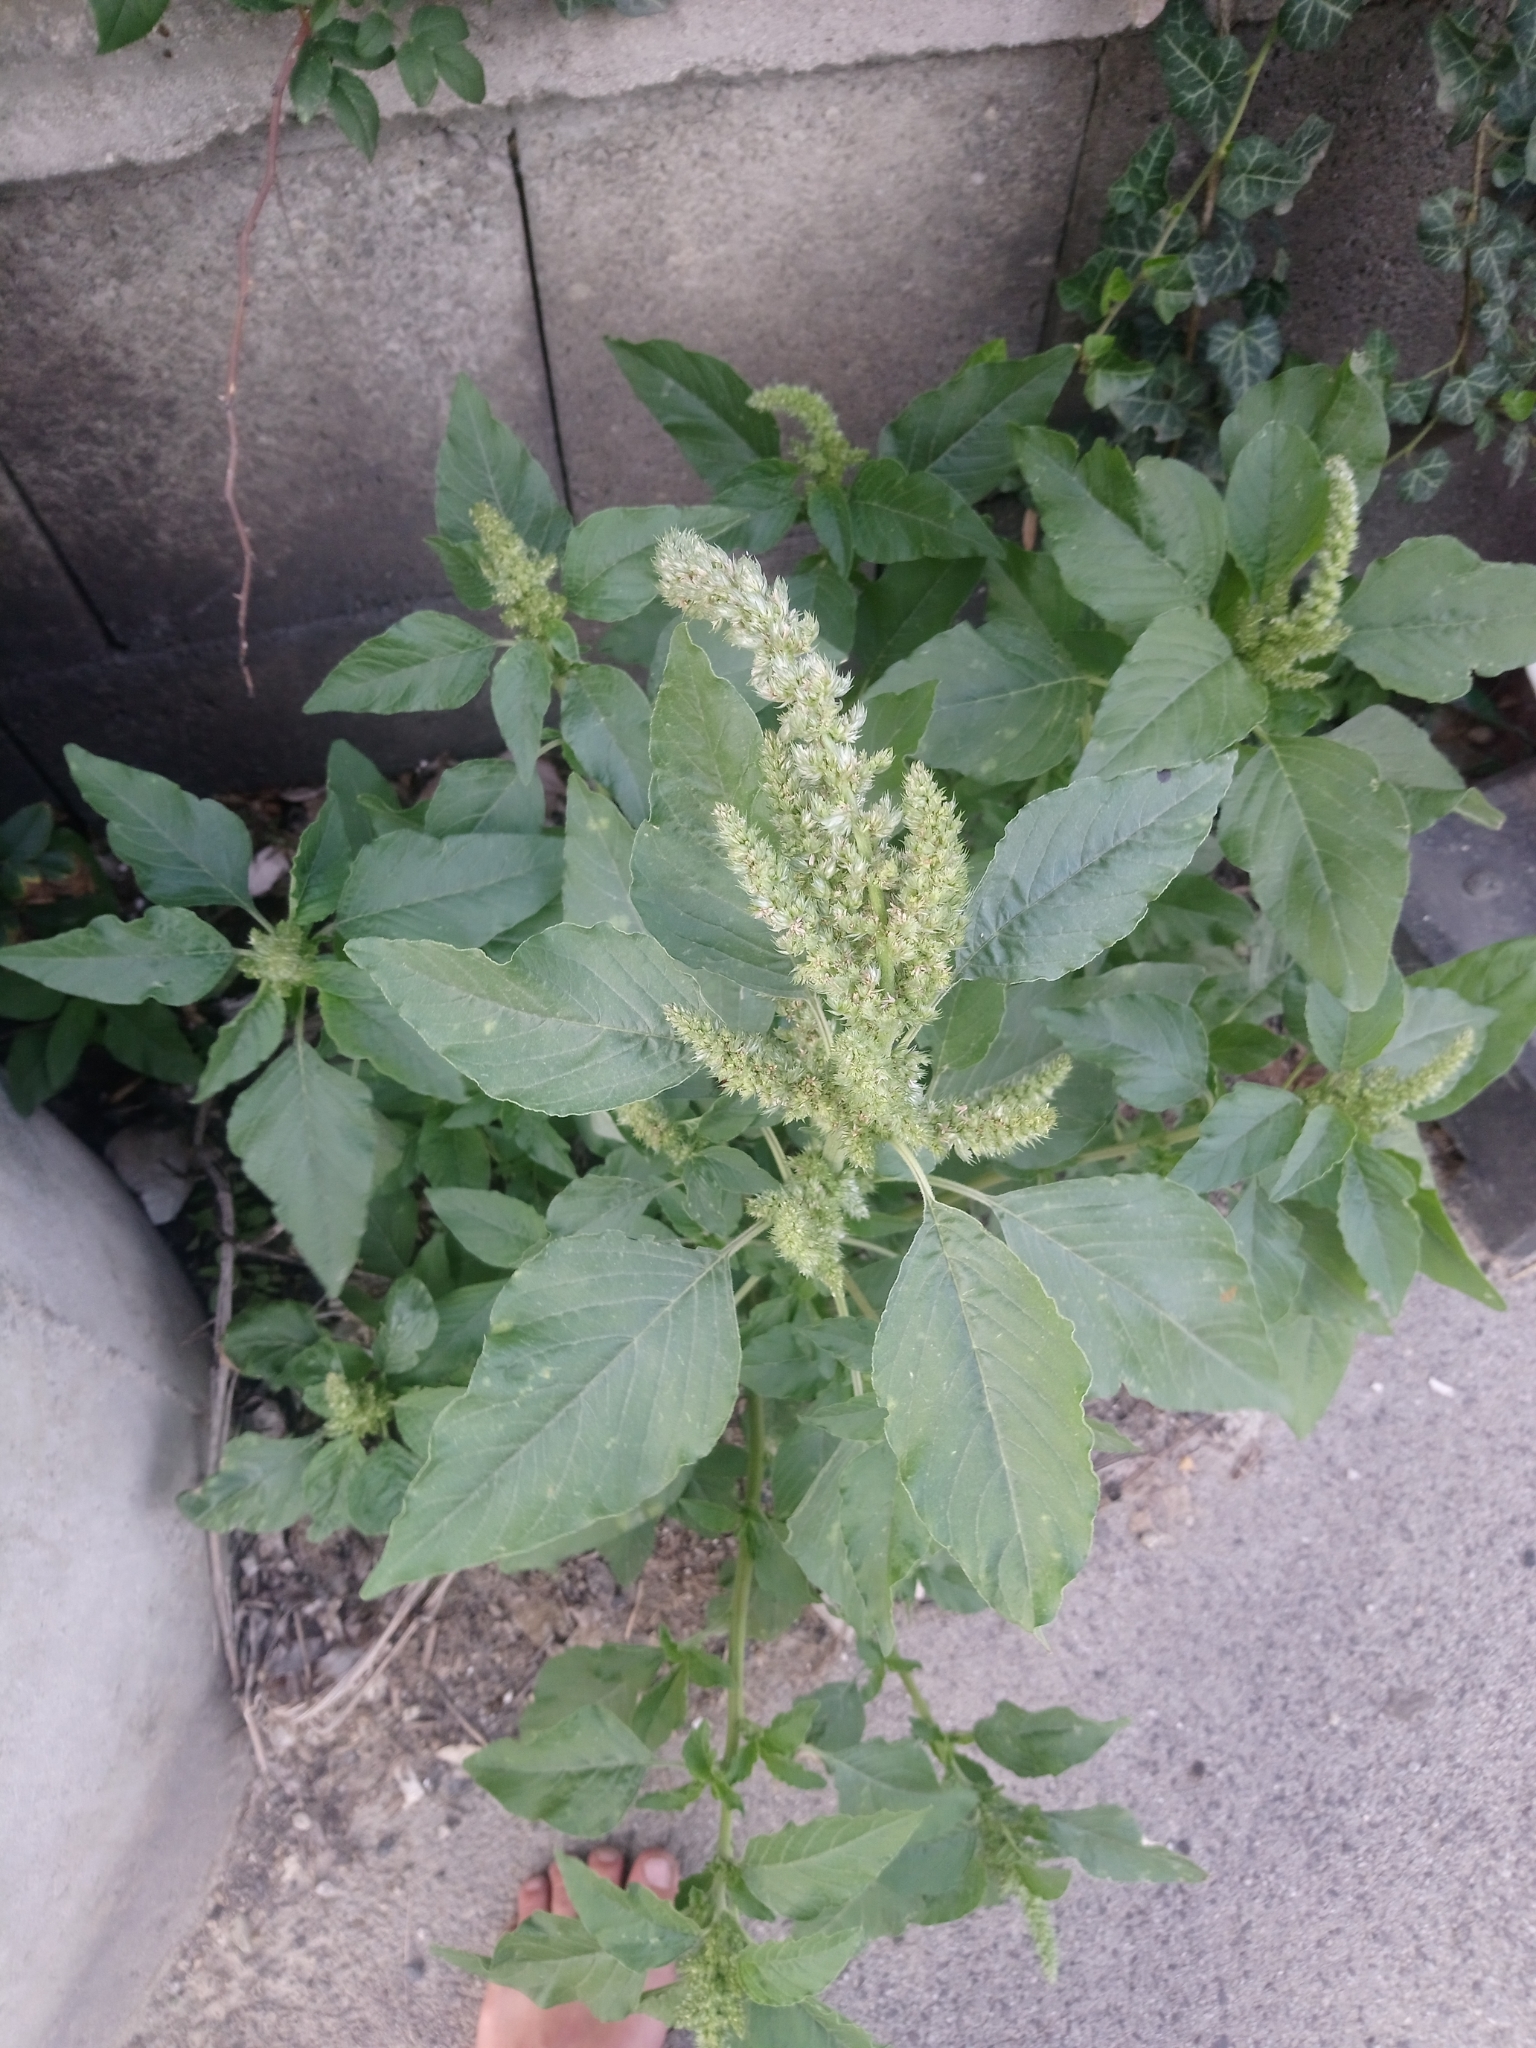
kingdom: Plantae
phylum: Tracheophyta
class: Magnoliopsida
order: Caryophyllales
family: Amaranthaceae
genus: Amaranthus
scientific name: Amaranthus retroflexus
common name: Redroot amaranth
